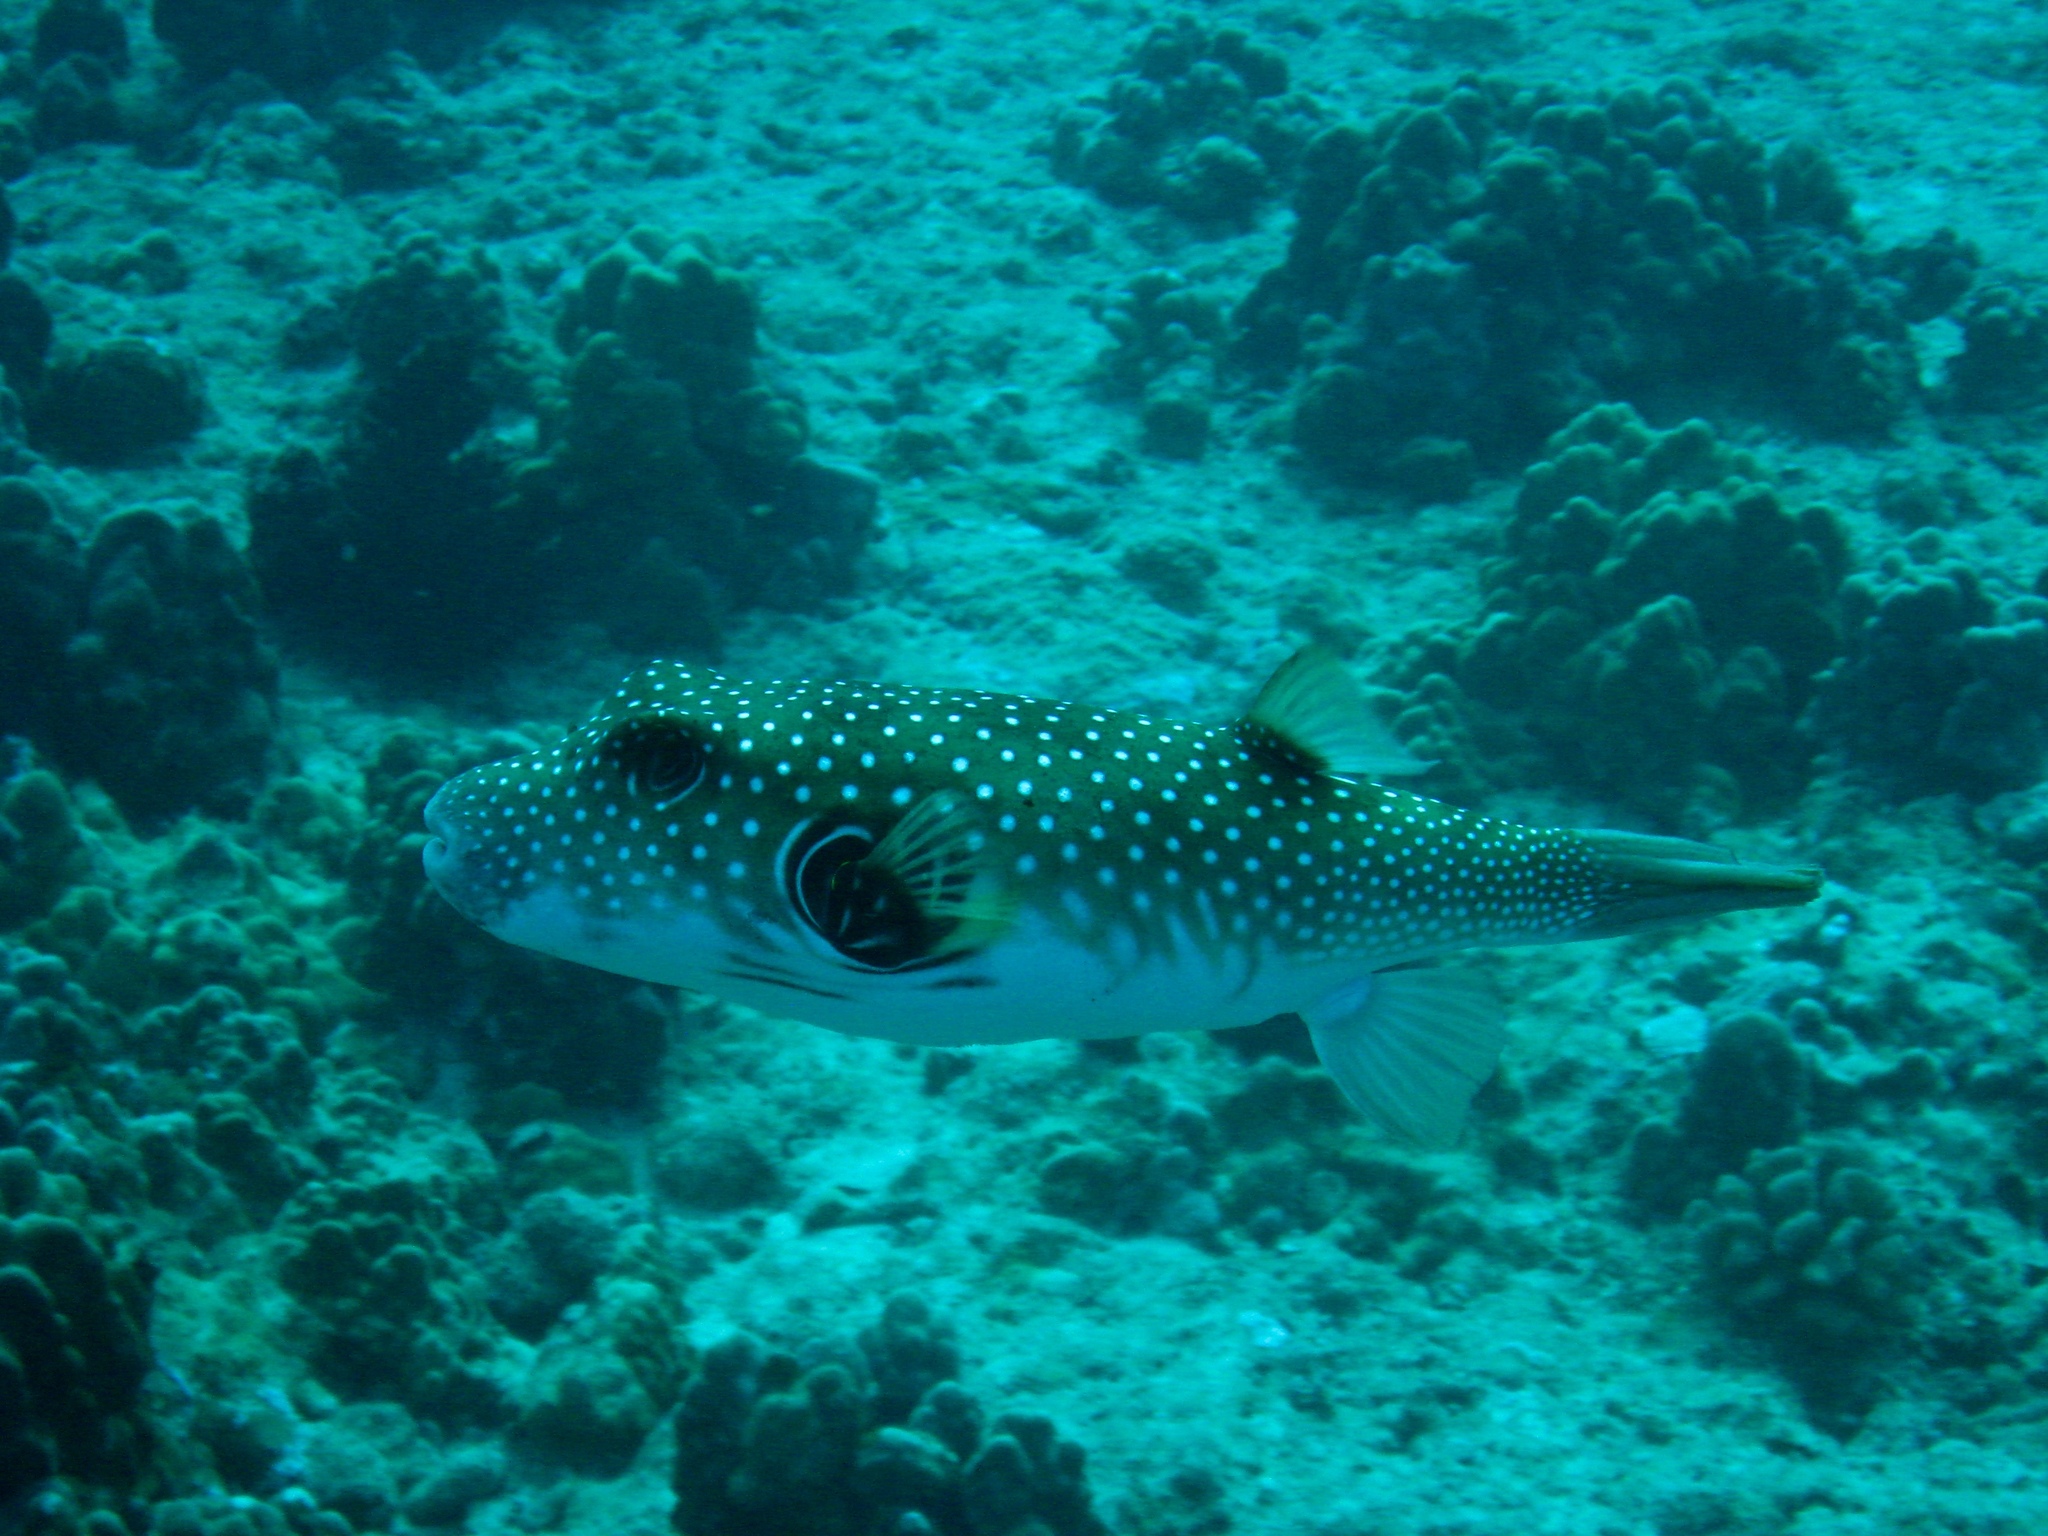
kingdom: Animalia
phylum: Chordata
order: Tetraodontiformes
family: Tetraodontidae
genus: Arothron
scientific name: Arothron hispidus
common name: Stripebelly puffer
